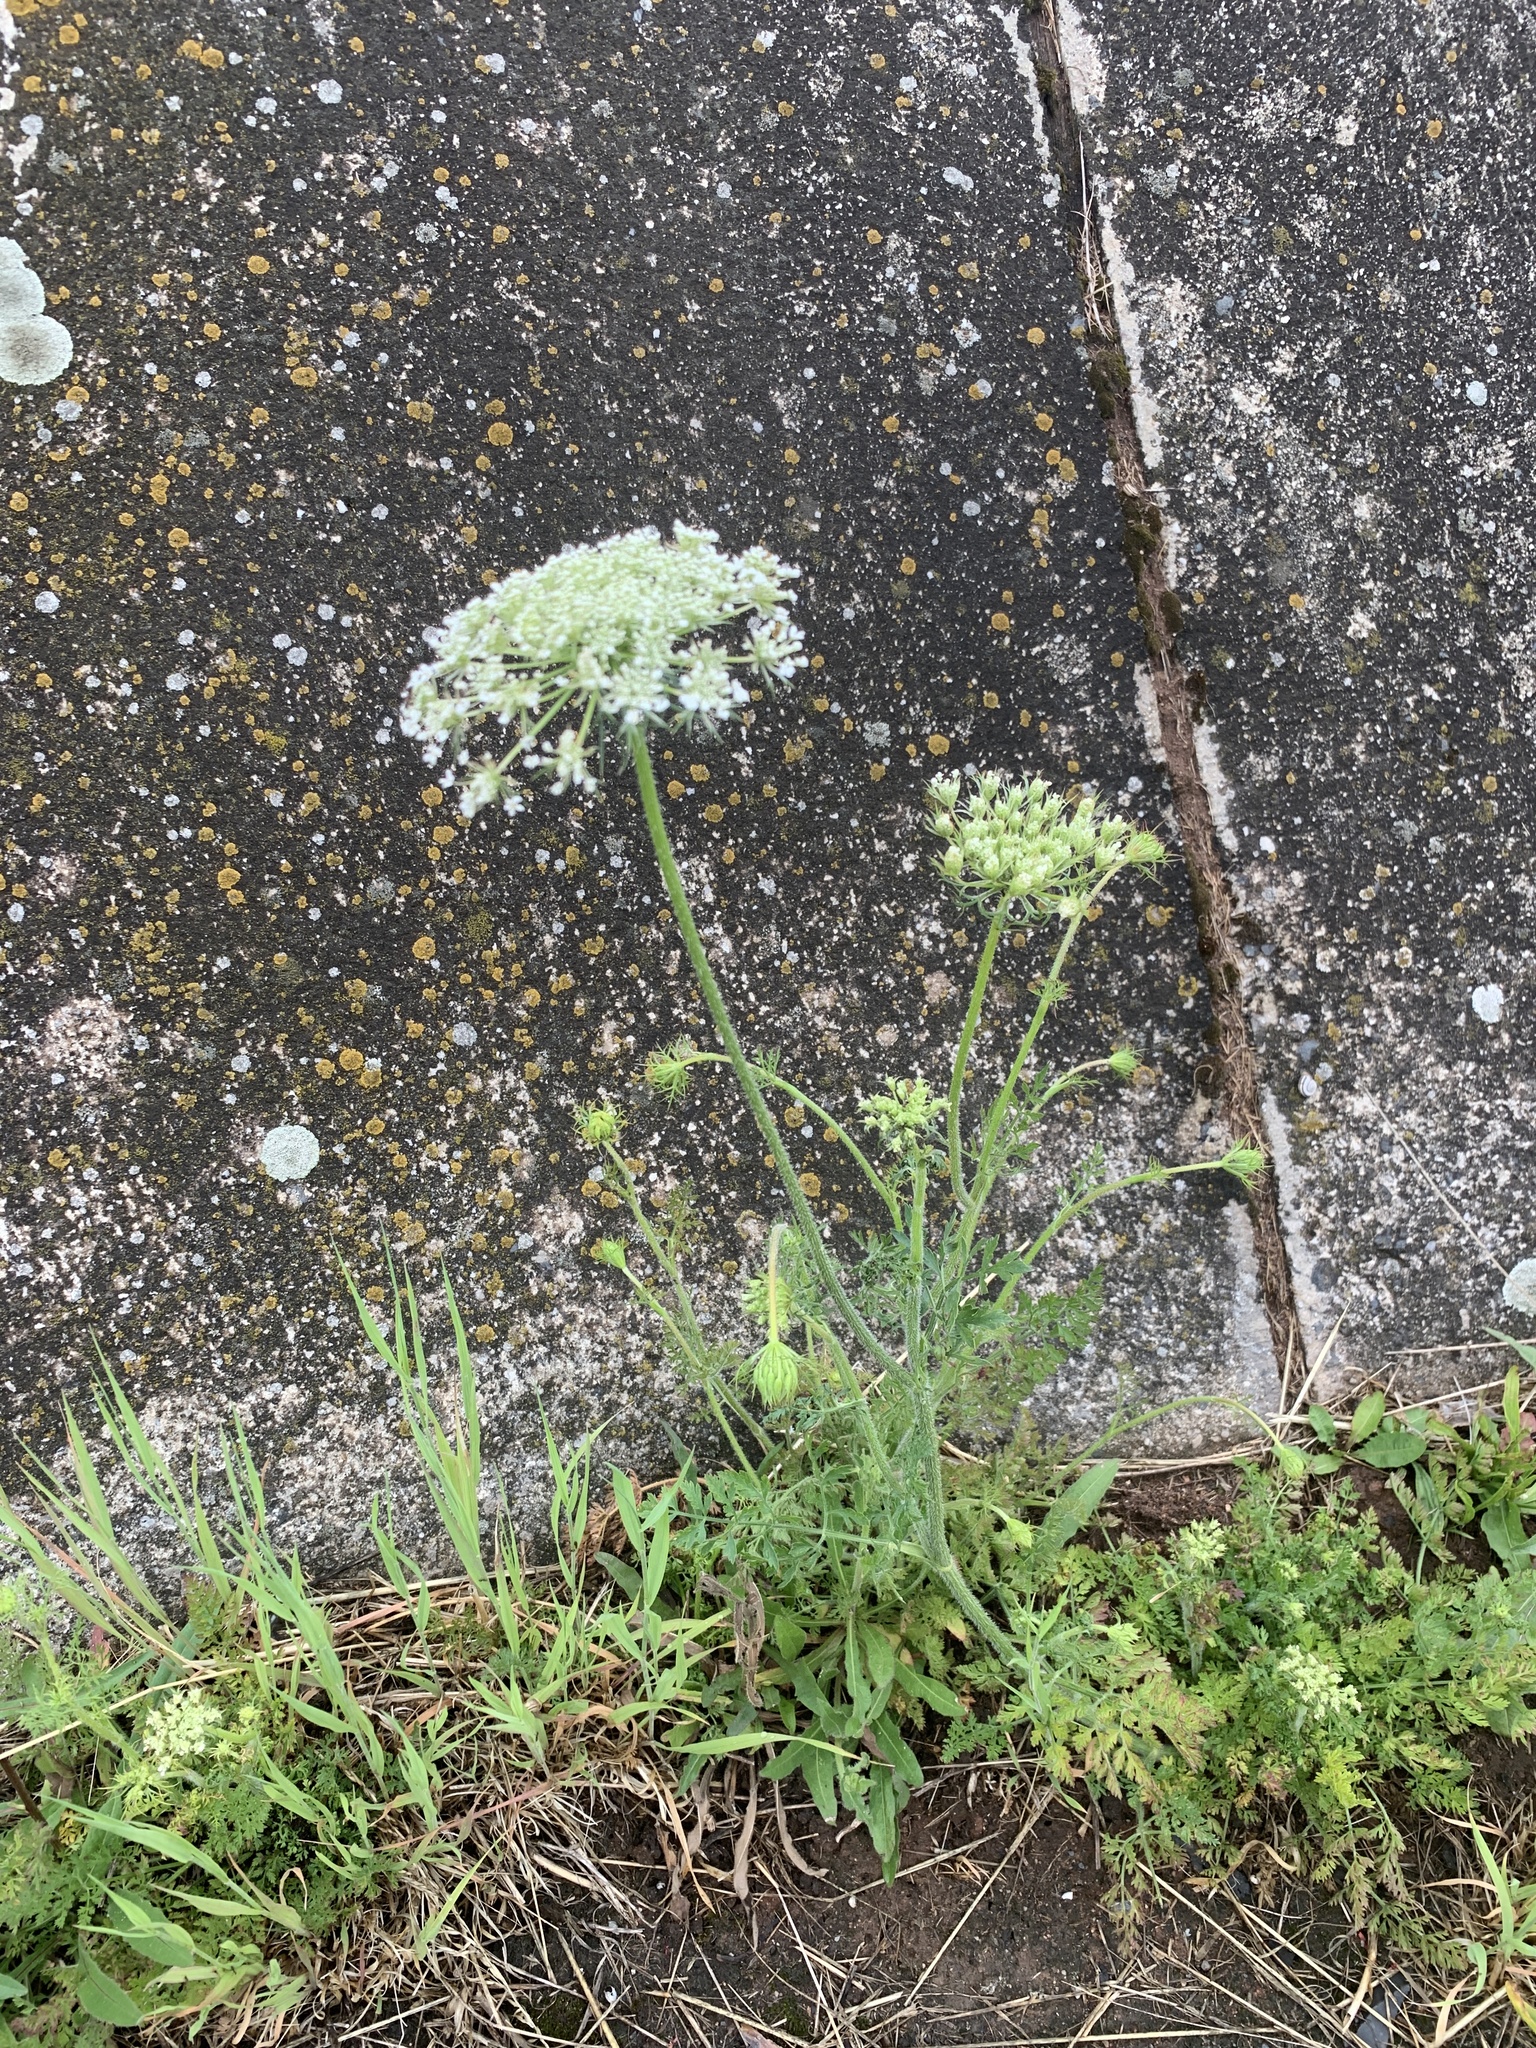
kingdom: Plantae
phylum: Tracheophyta
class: Magnoliopsida
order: Apiales
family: Apiaceae
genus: Daucus
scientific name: Daucus carota
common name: Wild carrot
